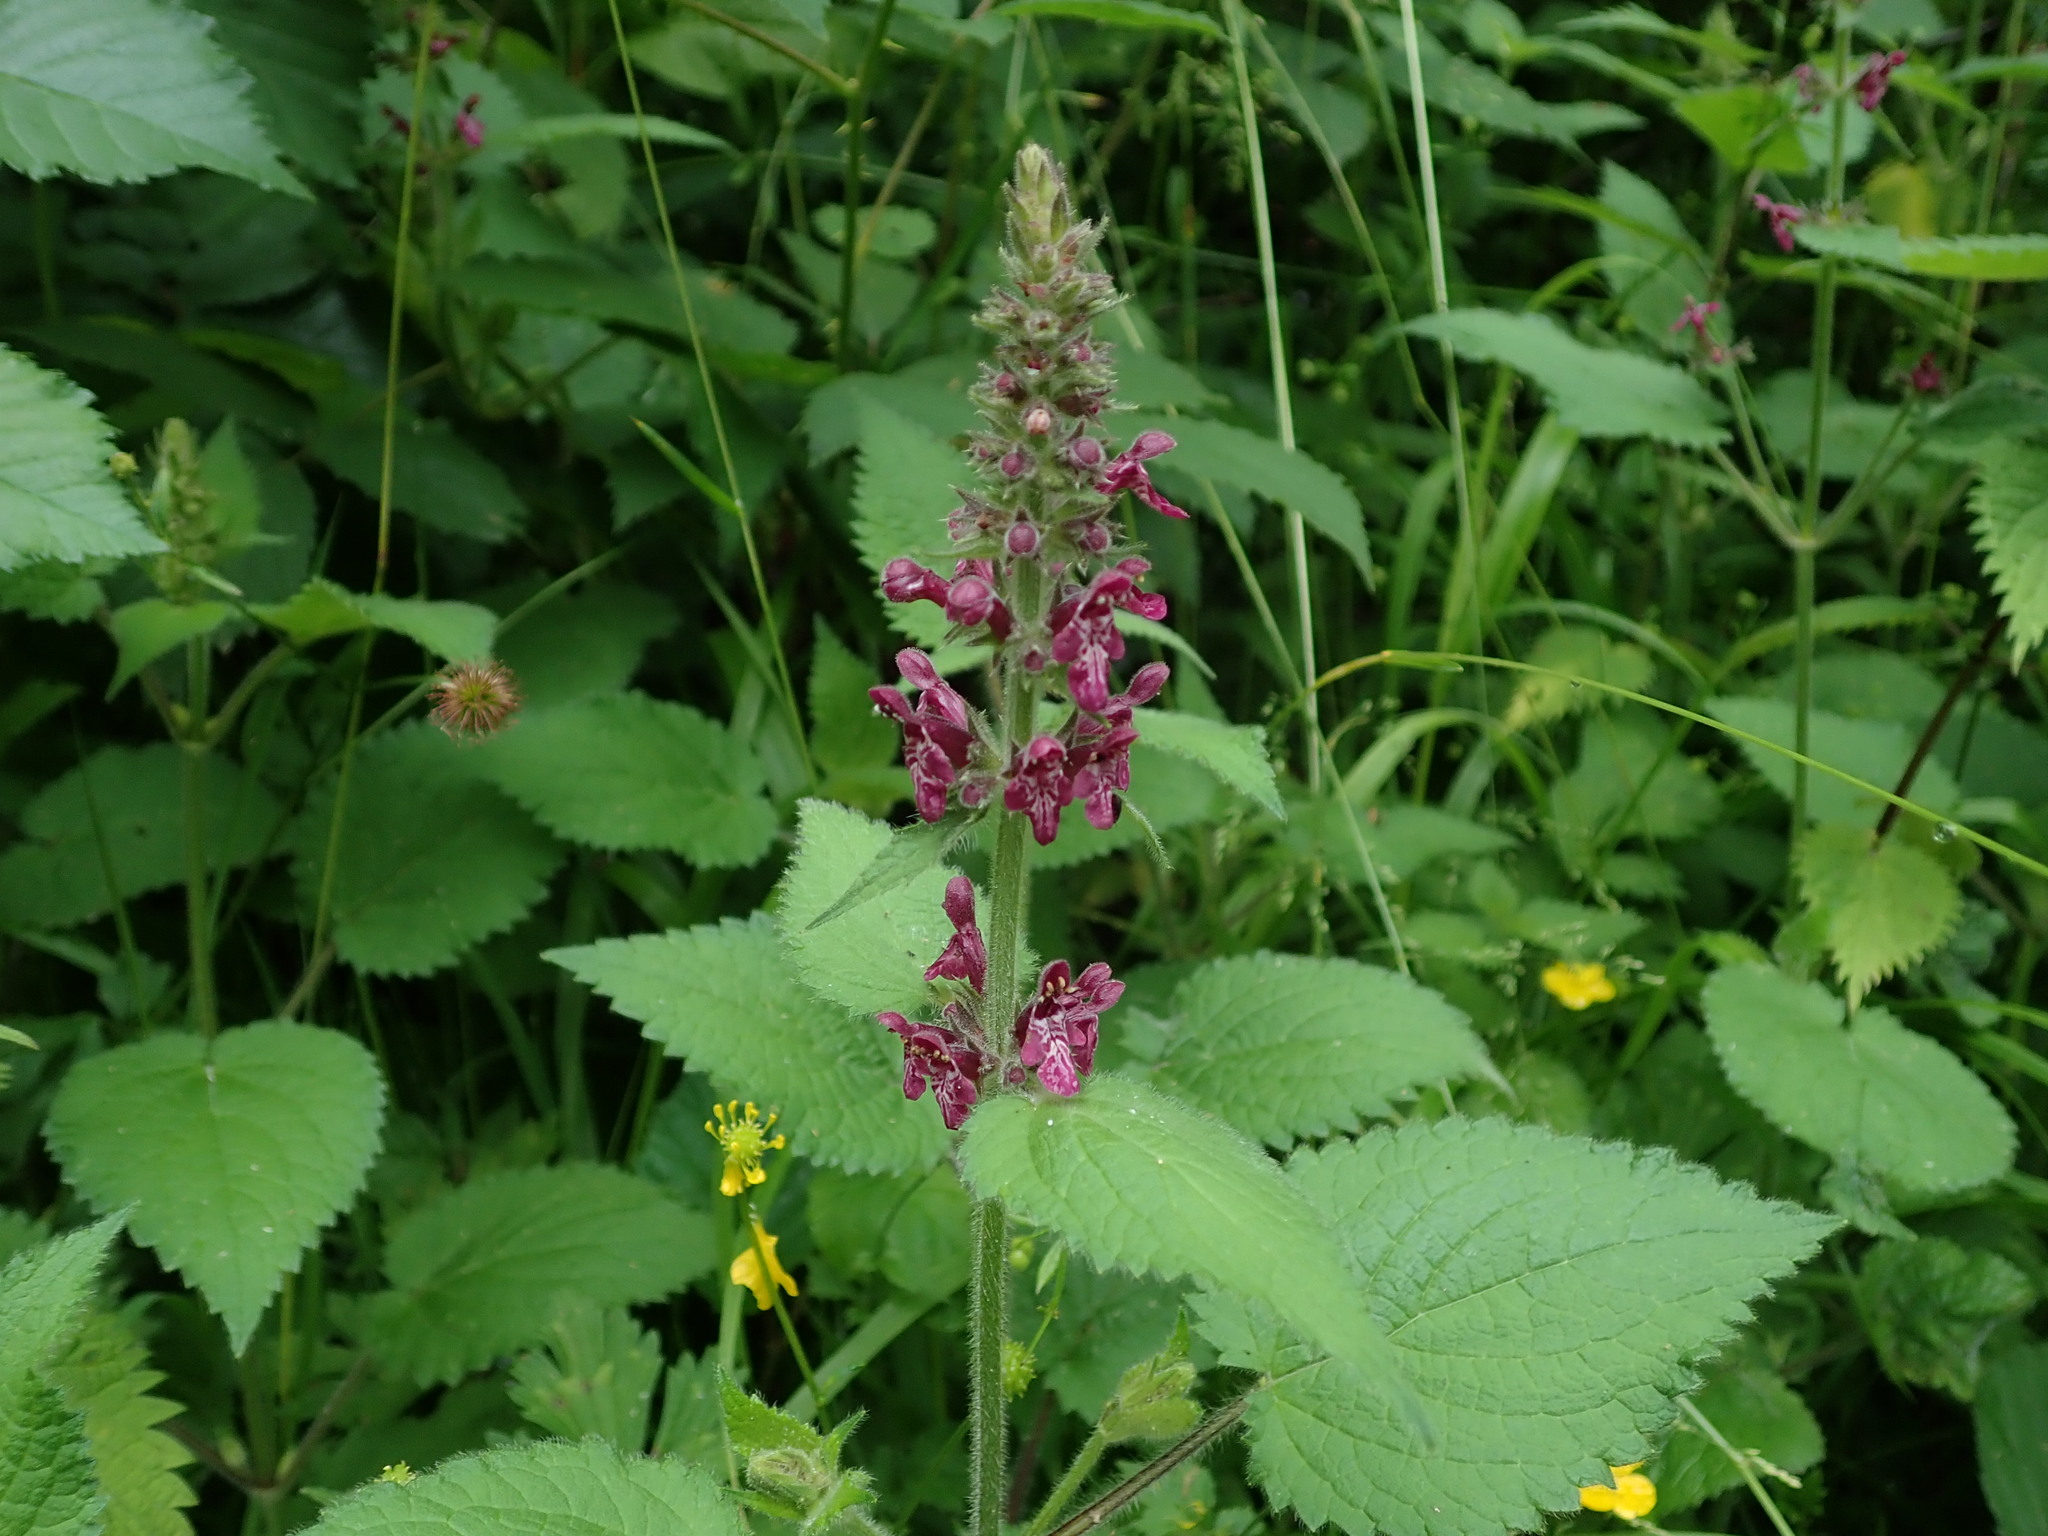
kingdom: Plantae
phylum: Tracheophyta
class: Magnoliopsida
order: Lamiales
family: Lamiaceae
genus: Stachys
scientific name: Stachys sylvatica
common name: Hedge woundwort
